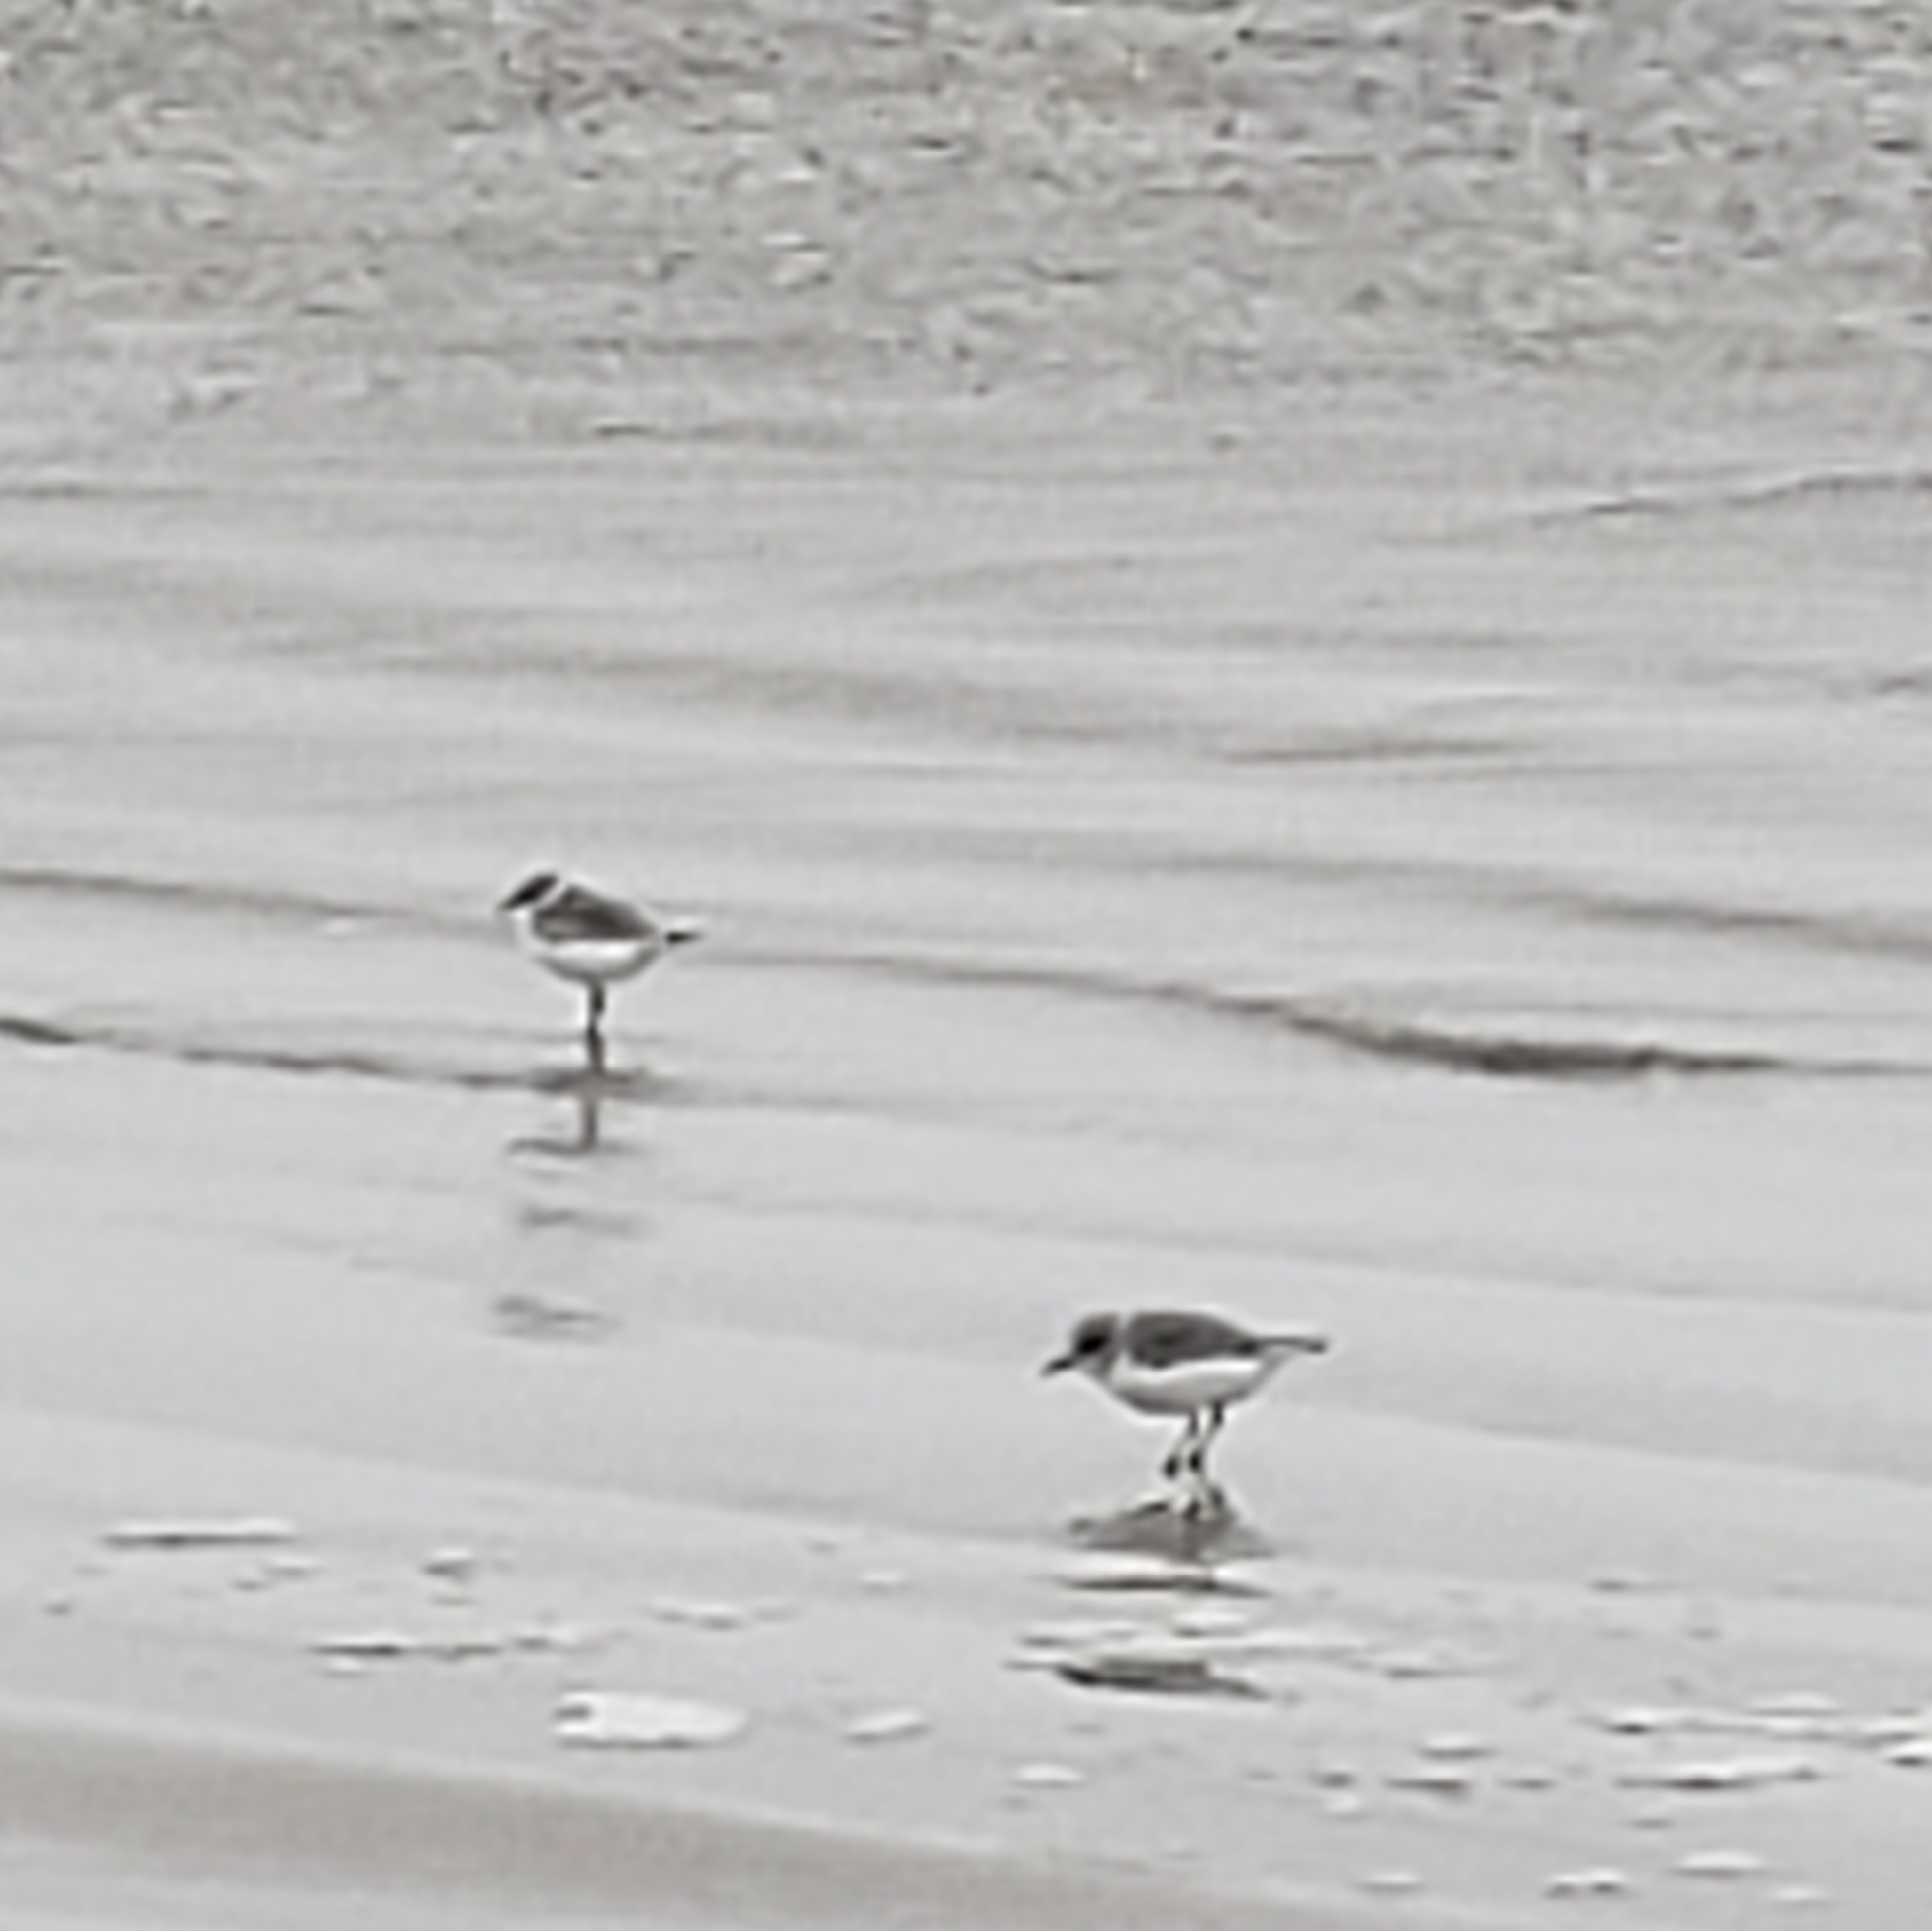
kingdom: Animalia
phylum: Chordata
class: Aves
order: Charadriiformes
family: Charadriidae
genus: Charadrius
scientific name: Charadrius semipalmatus
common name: Semipalmated plover
